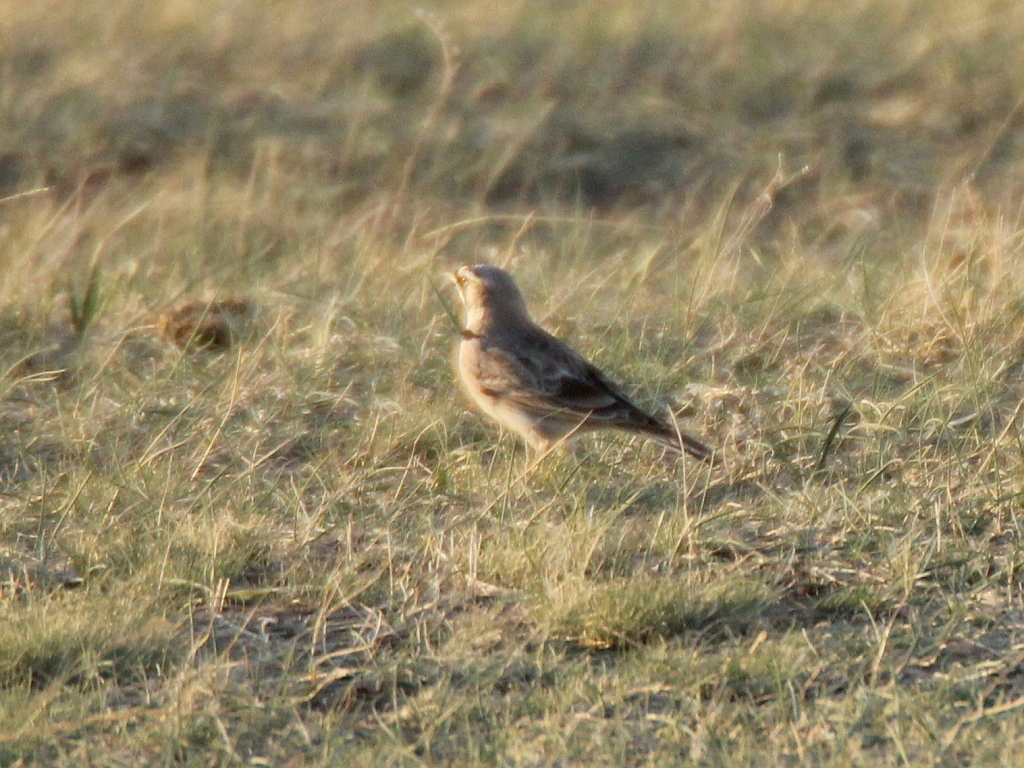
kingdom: Animalia
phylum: Chordata
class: Aves
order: Passeriformes
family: Alaudidae
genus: Eremophila
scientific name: Eremophila alpestris
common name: Horned lark
